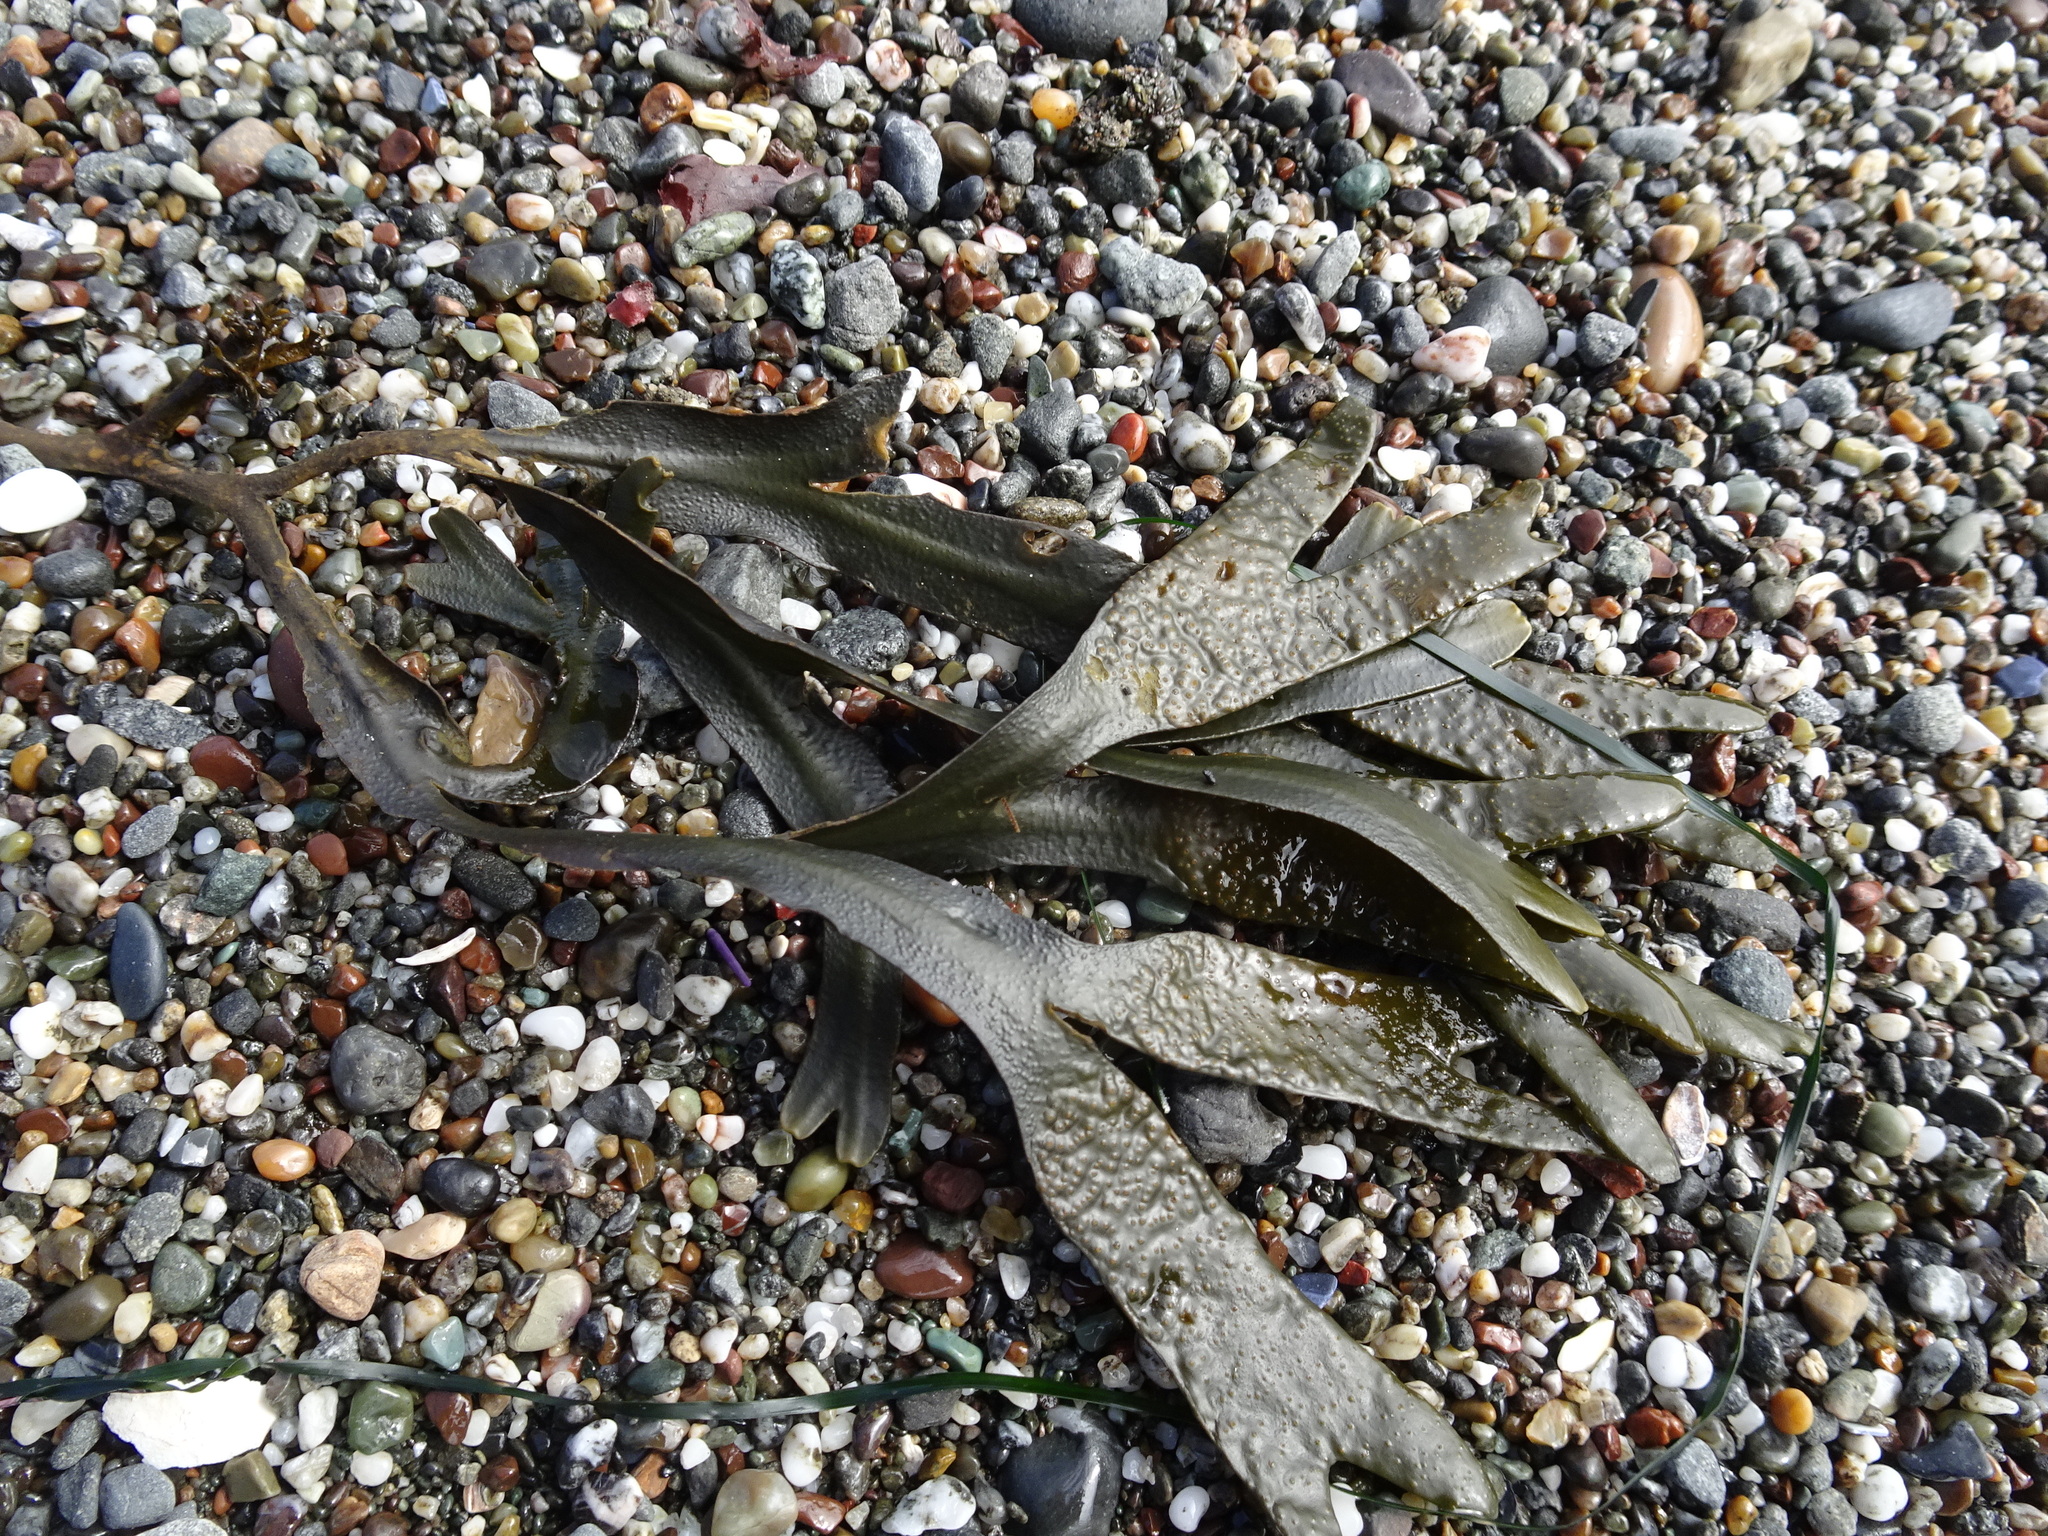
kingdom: Chromista
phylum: Ochrophyta
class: Phaeophyceae
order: Fucales
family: Fucaceae
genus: Fucus
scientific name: Fucus distichus
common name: Rockweed
